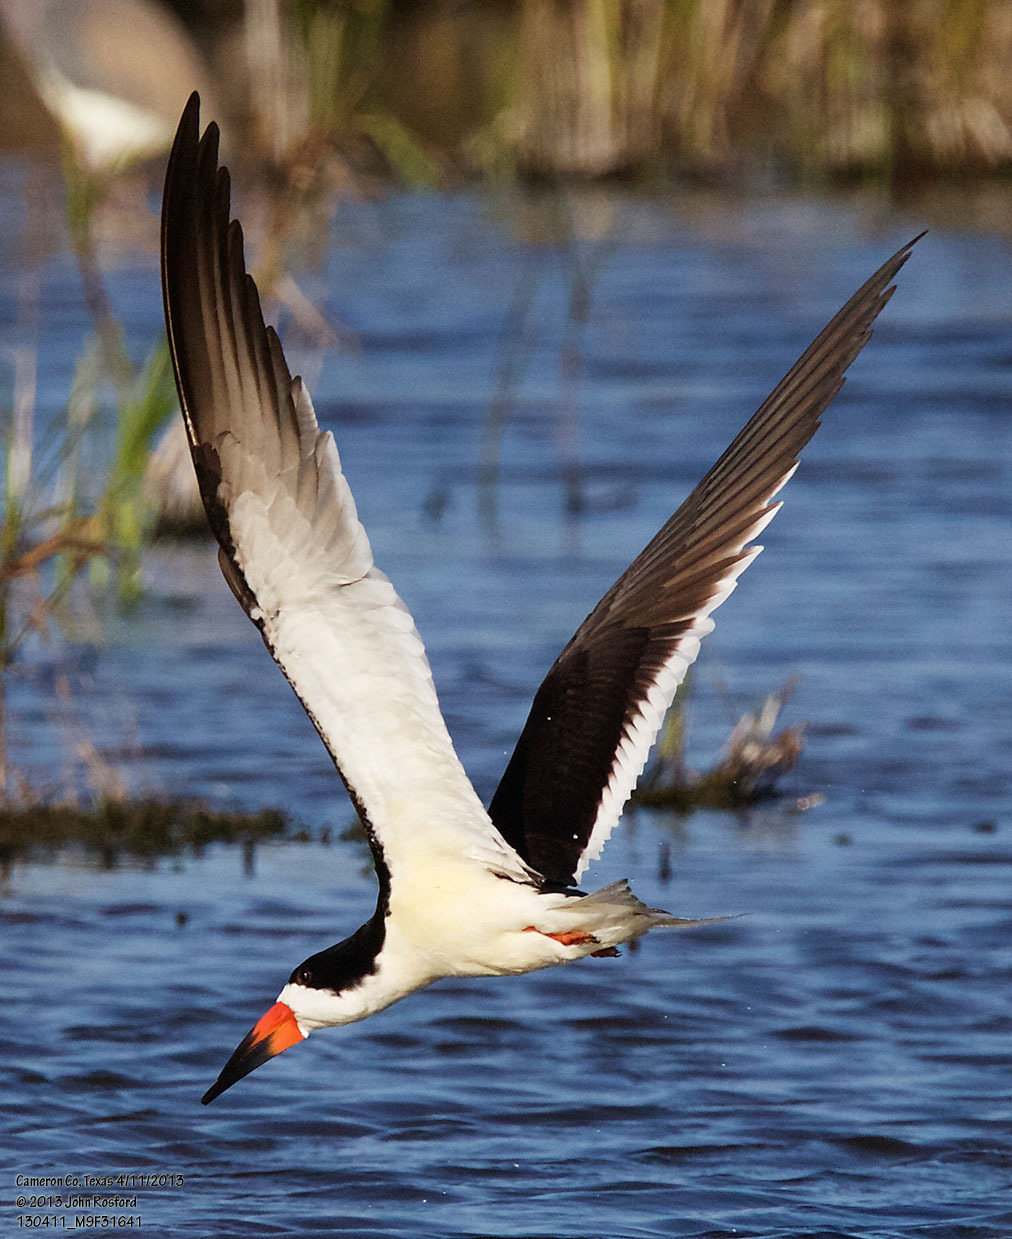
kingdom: Animalia
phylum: Chordata
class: Aves
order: Charadriiformes
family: Laridae
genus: Rynchops
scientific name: Rynchops niger
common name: Black skimmer
